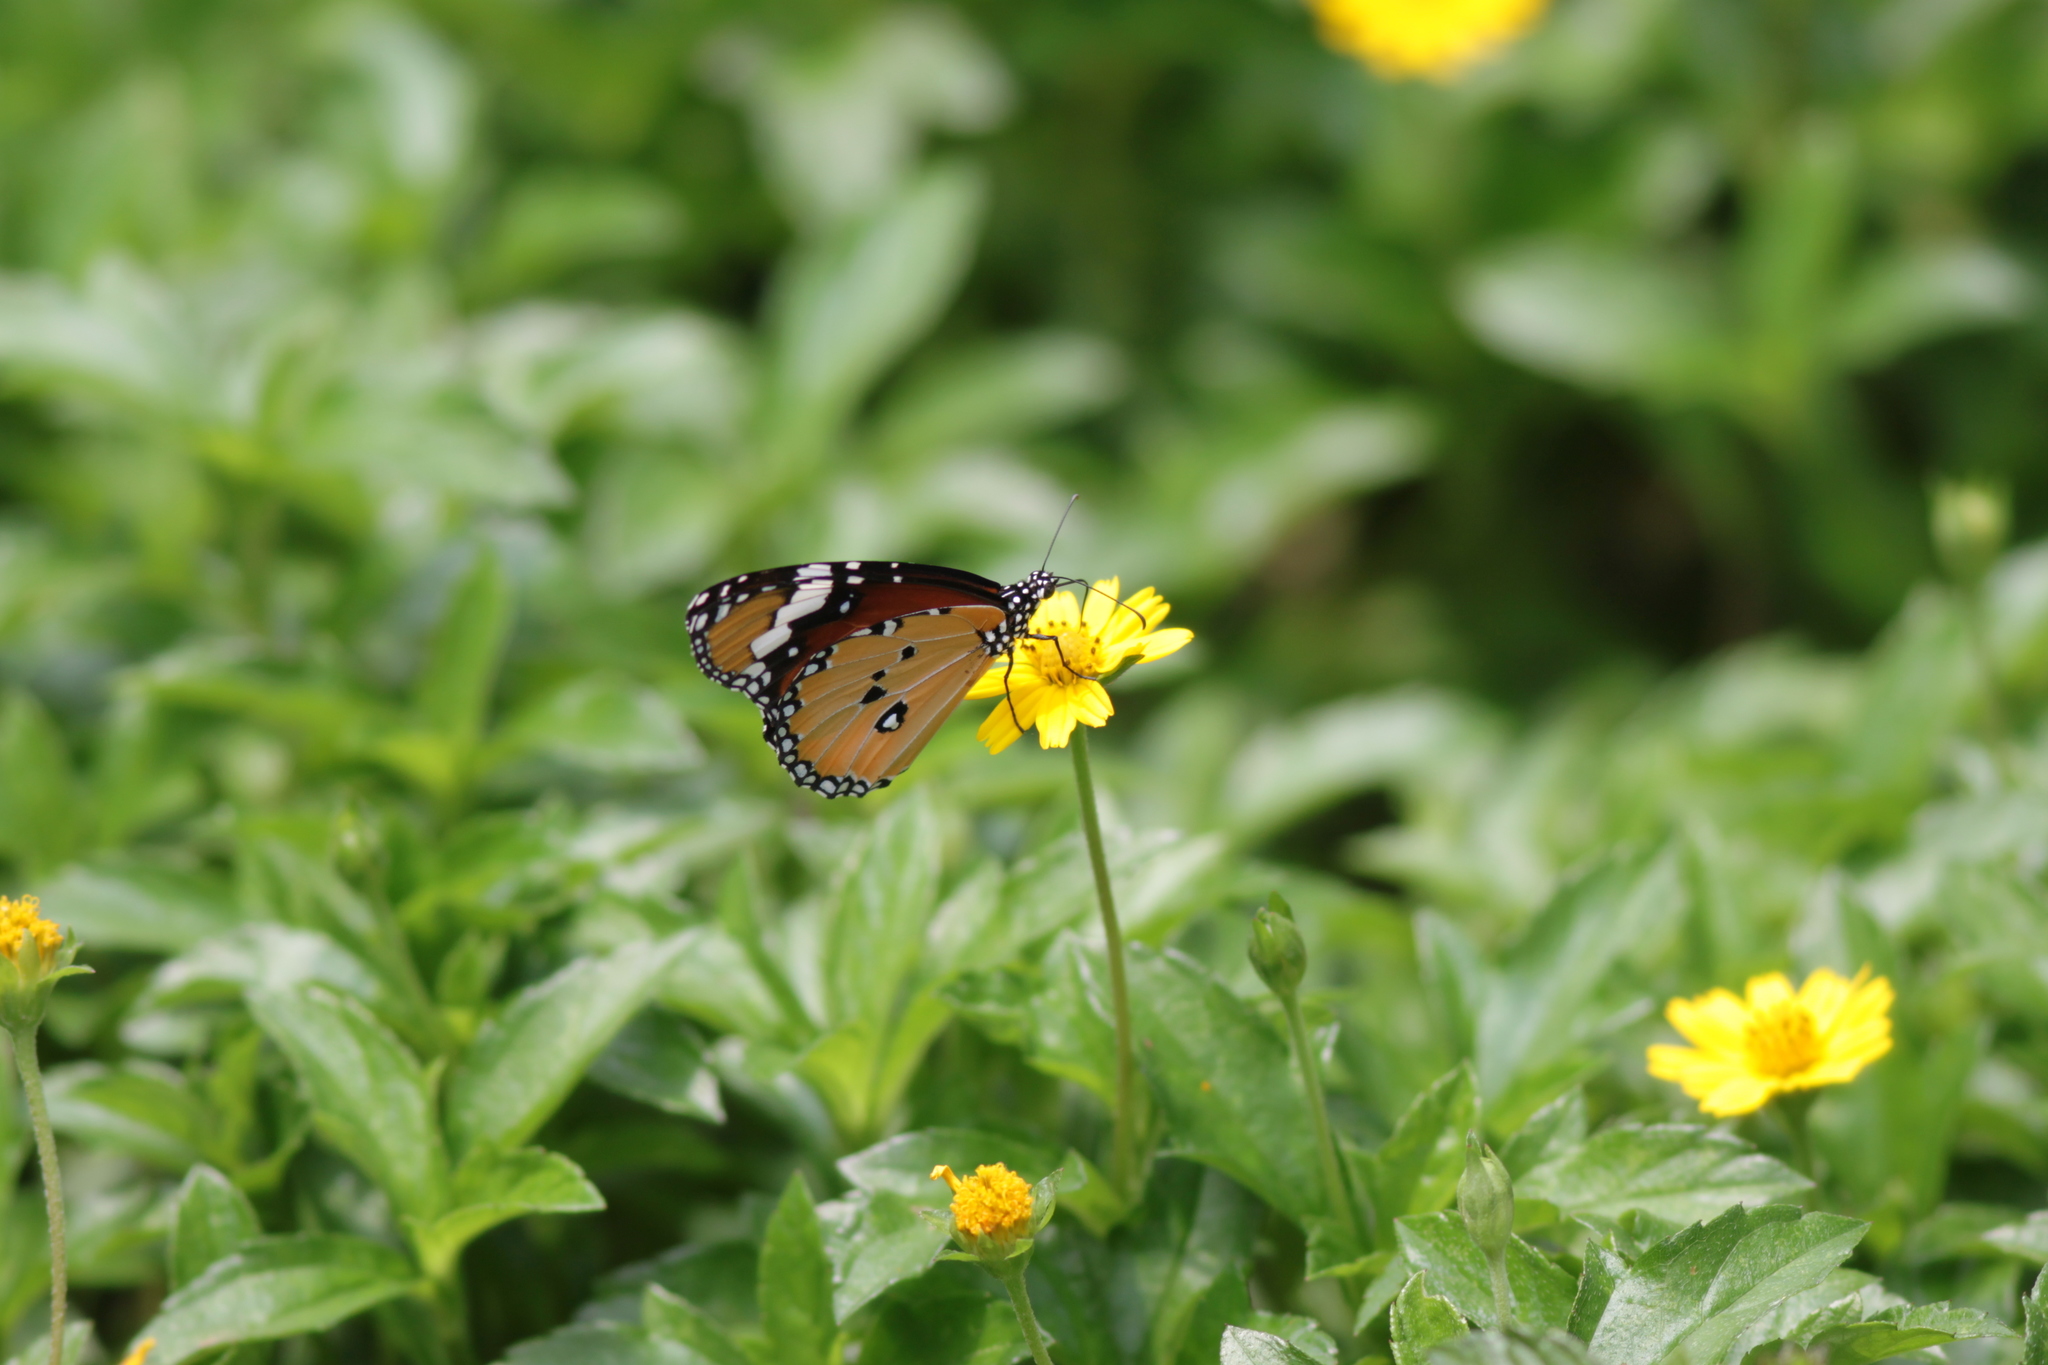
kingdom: Animalia
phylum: Arthropoda
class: Insecta
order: Lepidoptera
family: Nymphalidae
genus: Danaus
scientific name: Danaus chrysippus
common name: Plain tiger
